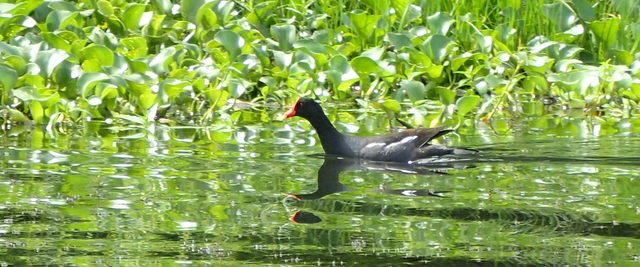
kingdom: Animalia
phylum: Chordata
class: Aves
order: Gruiformes
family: Rallidae
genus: Gallinula
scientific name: Gallinula chloropus
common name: Common moorhen
